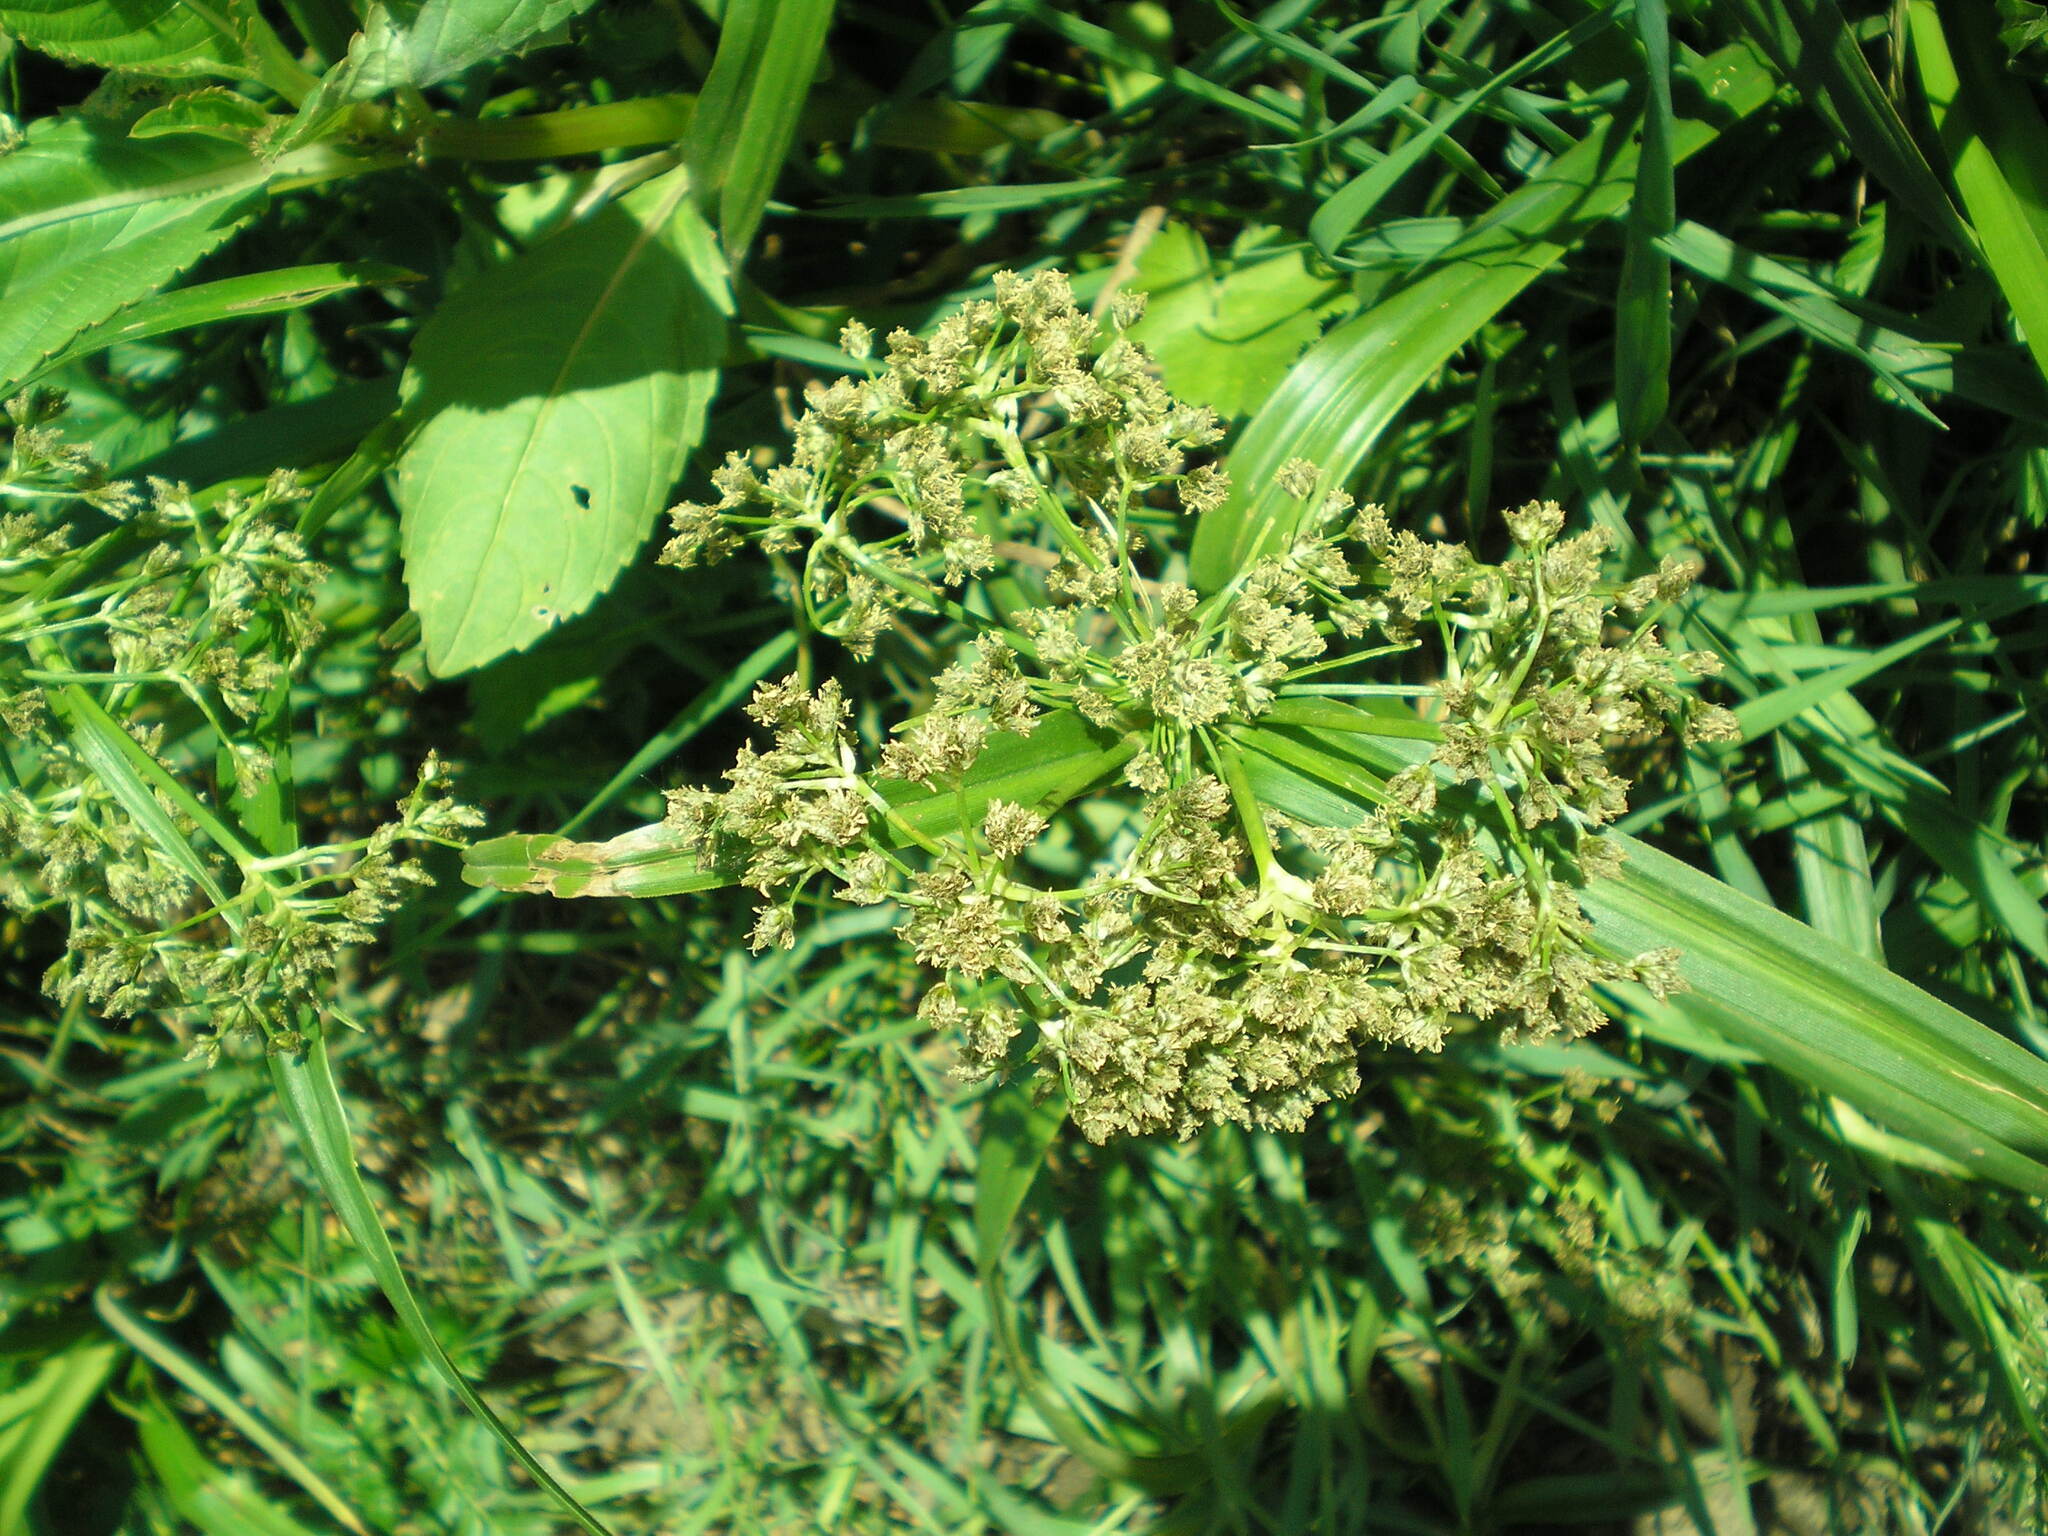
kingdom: Plantae
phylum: Tracheophyta
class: Liliopsida
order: Poales
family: Cyperaceae
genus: Scirpus
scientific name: Scirpus sylvaticus
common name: Wood club-rush
